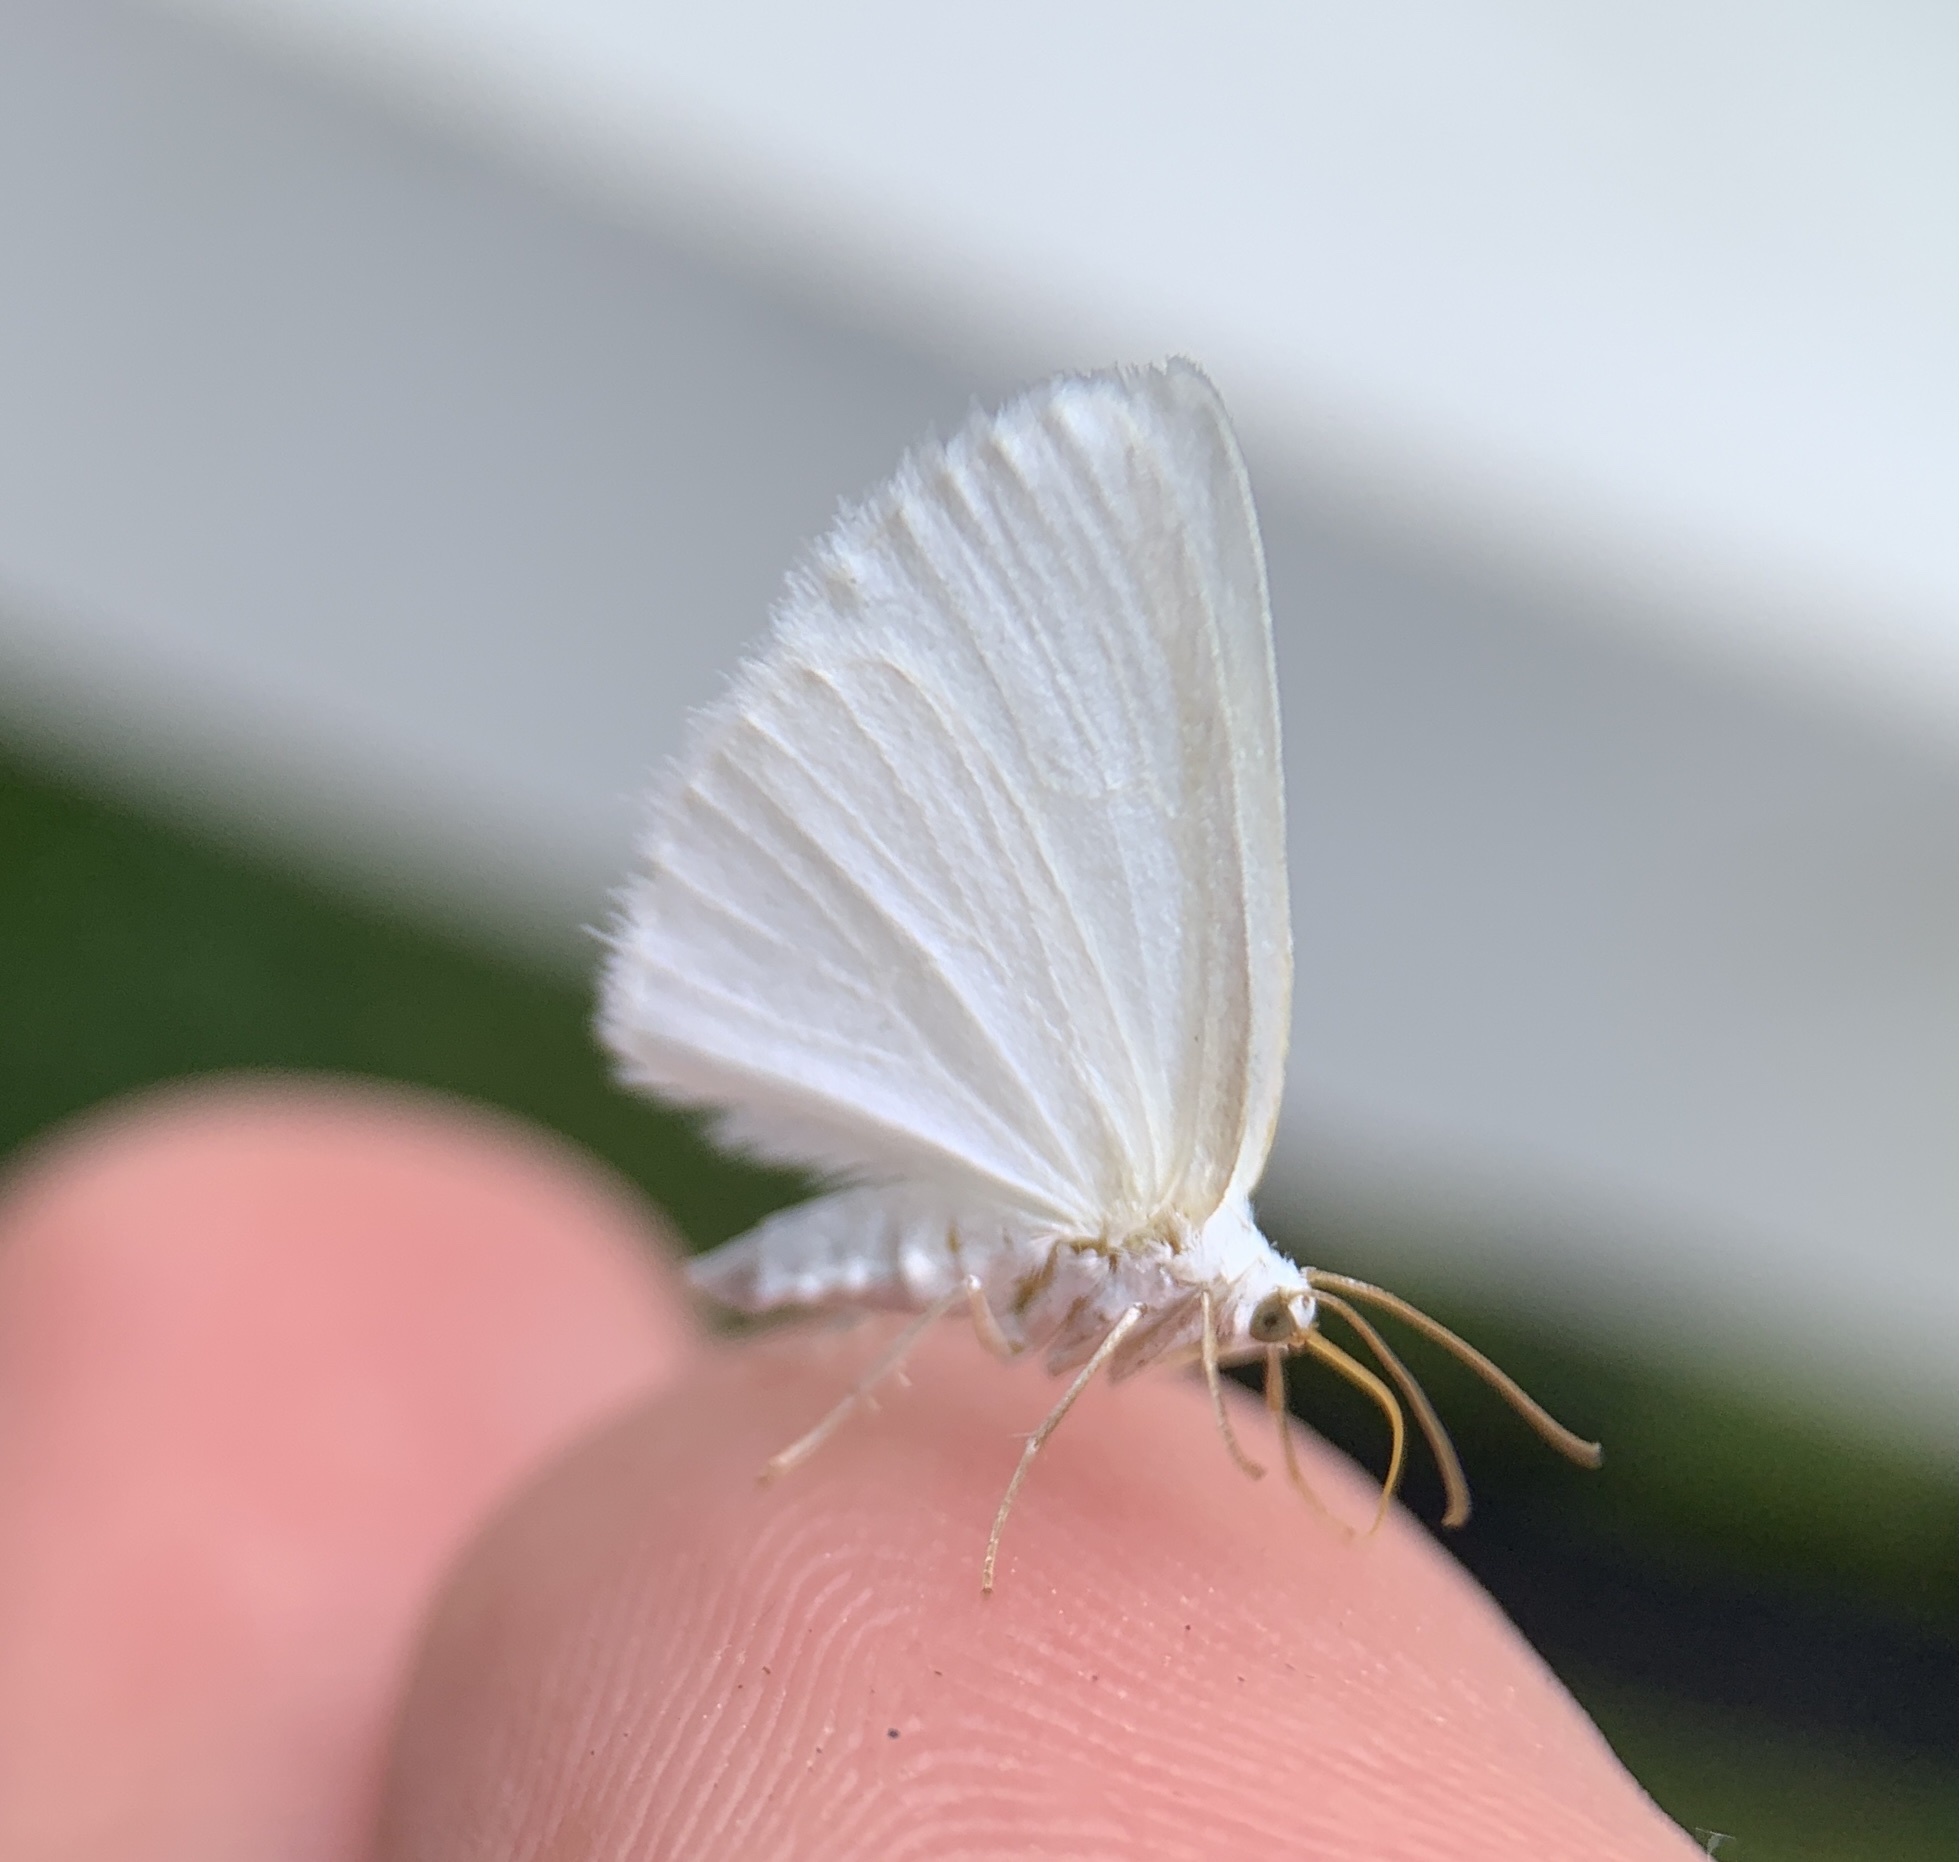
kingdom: Animalia
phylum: Arthropoda
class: Insecta
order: Lepidoptera
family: Geometridae
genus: Lomographa
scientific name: Lomographa vestaliata
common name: White spring moth
